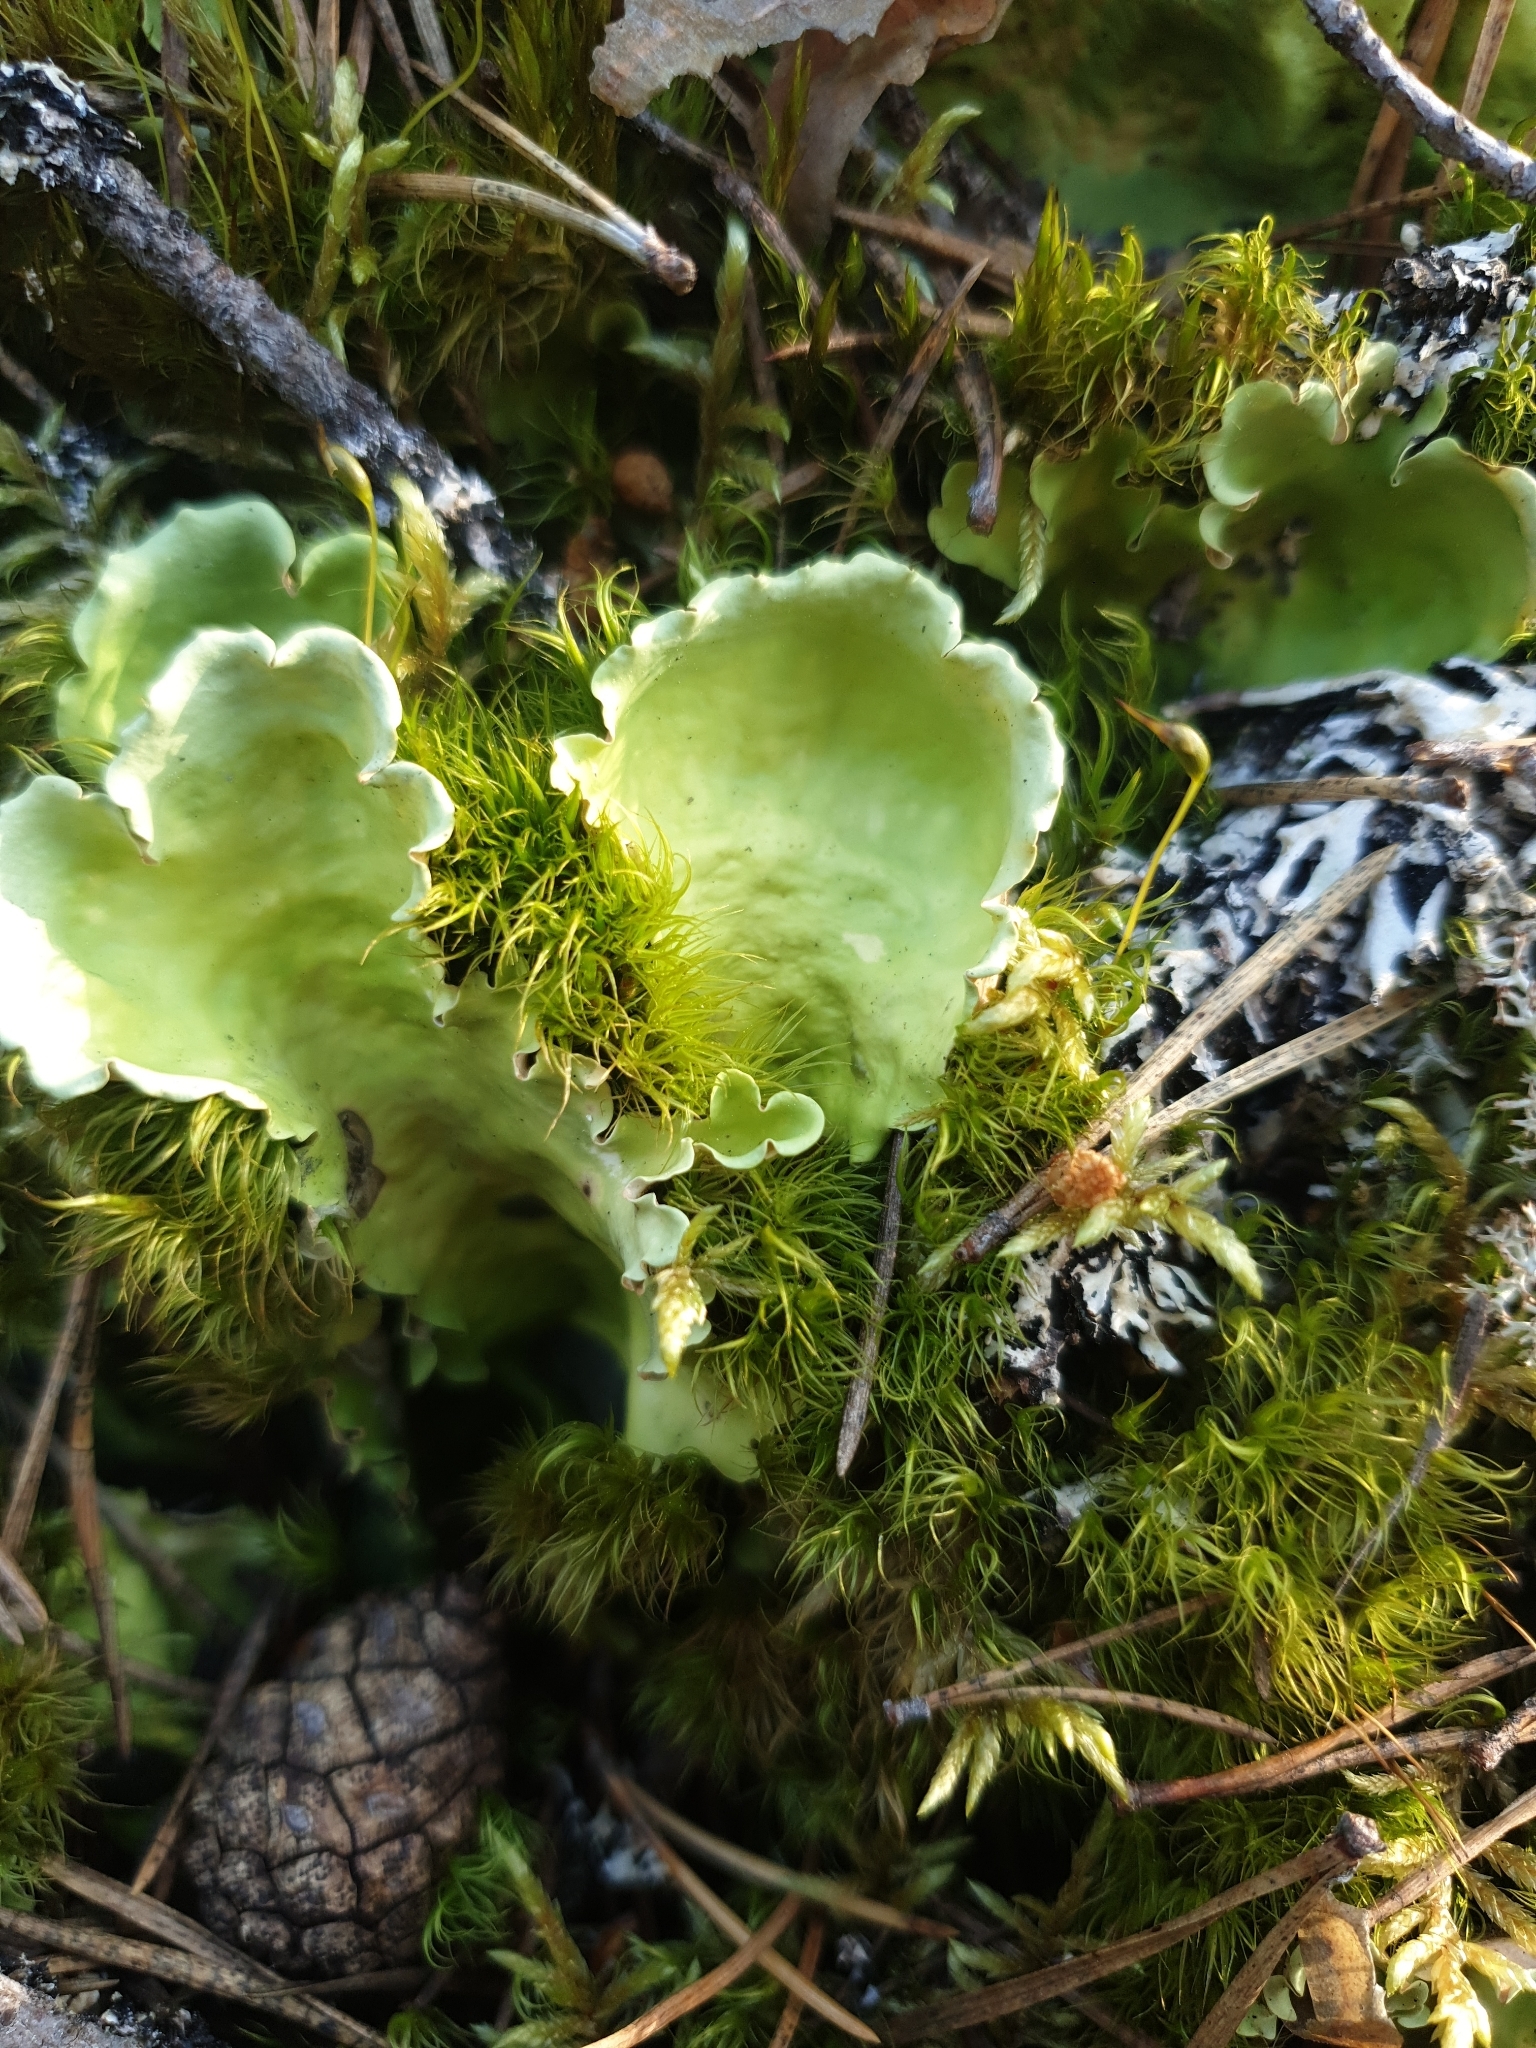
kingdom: Fungi
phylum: Ascomycota
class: Lecanoromycetes
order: Peltigerales
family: Nephromataceae
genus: Nephroma
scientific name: Nephroma arcticum
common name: Arctic kidney-lichen
